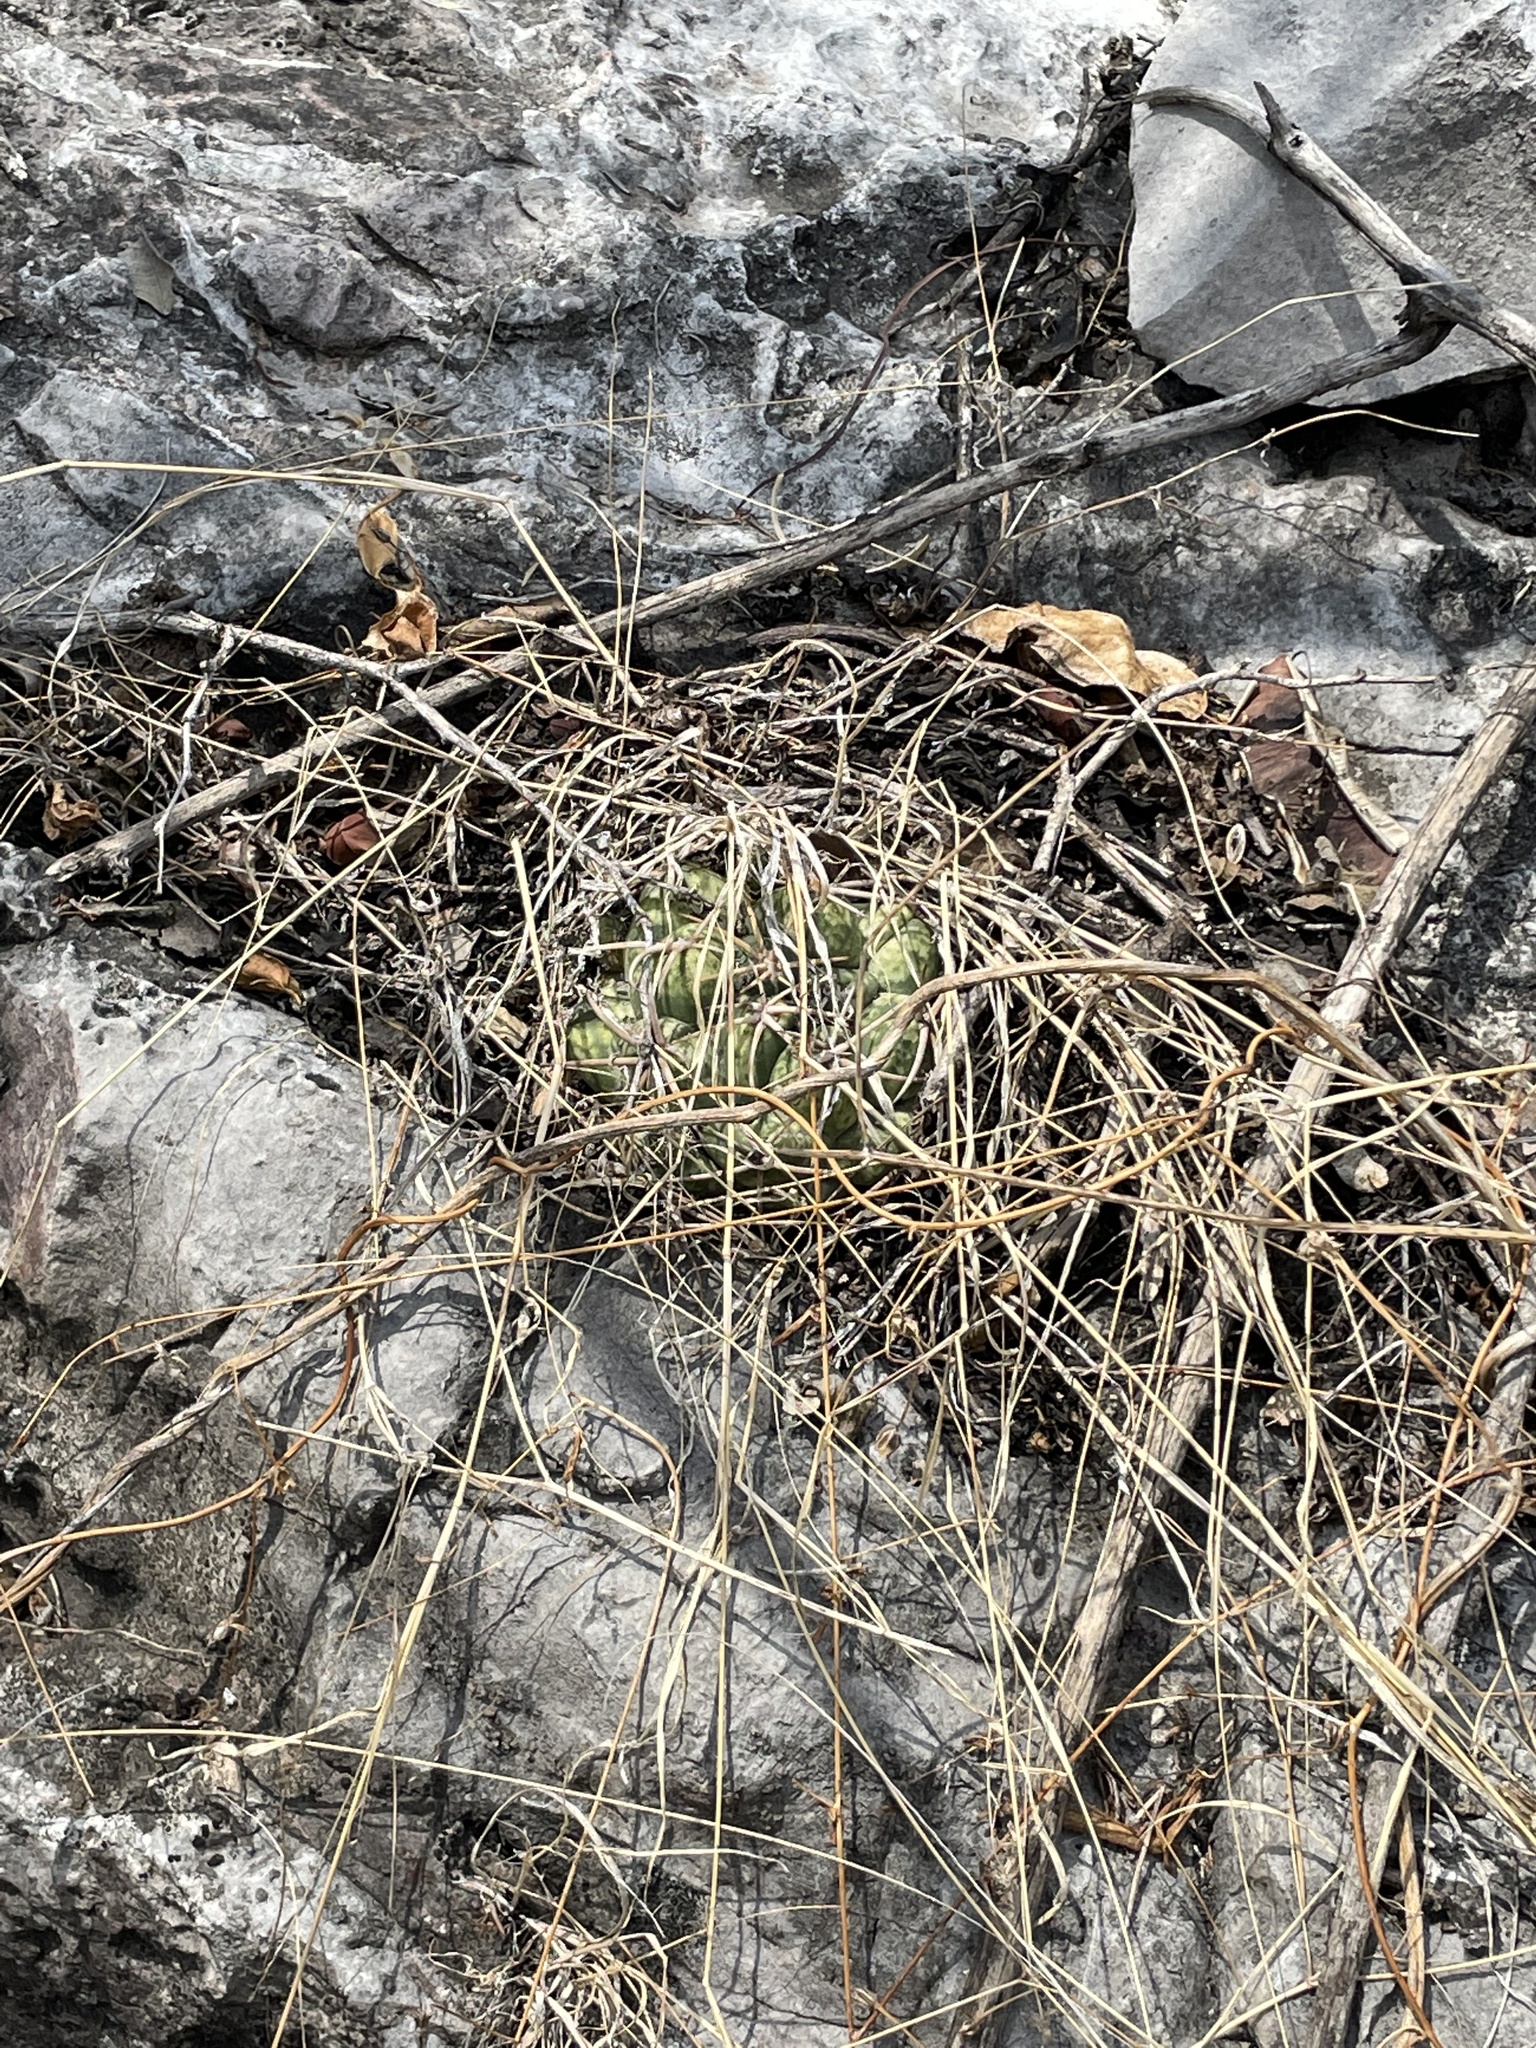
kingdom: Plantae
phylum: Tracheophyta
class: Magnoliopsida
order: Caryophyllales
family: Cactaceae
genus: Coryphantha
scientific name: Coryphantha elephantidens
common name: Elephant's tooth
